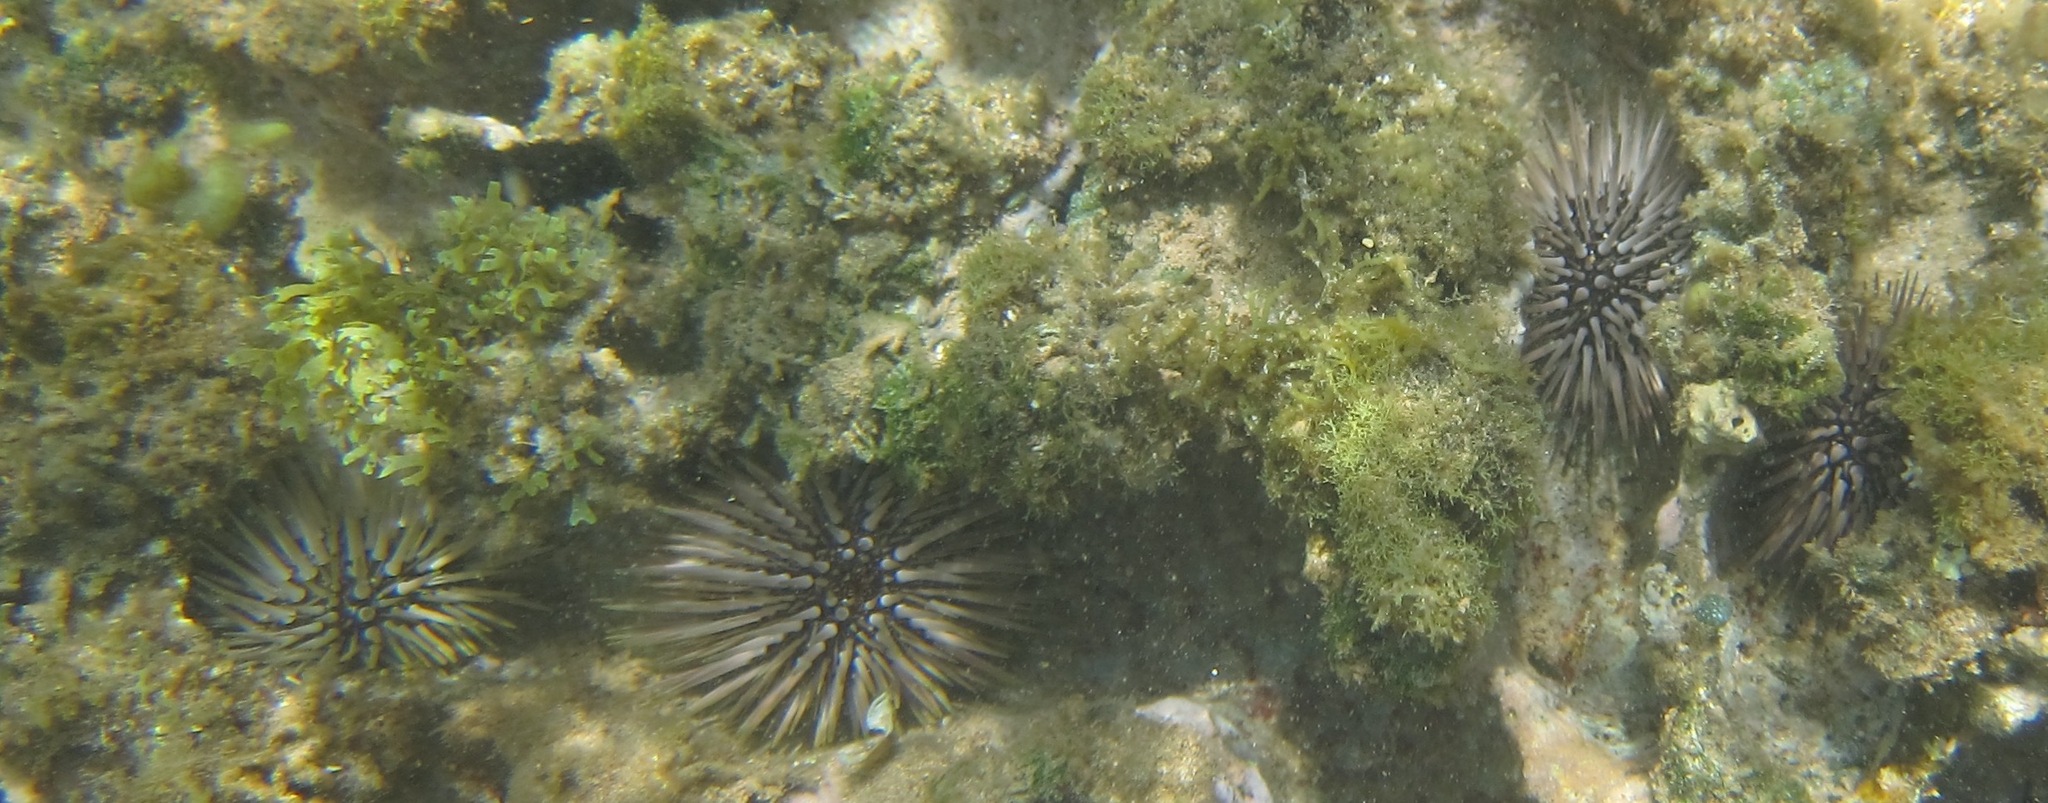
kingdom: Animalia
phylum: Echinodermata
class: Echinoidea
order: Camarodonta
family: Echinometridae
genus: Echinometra
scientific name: Echinometra mathaei
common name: Rock-boring urchin
